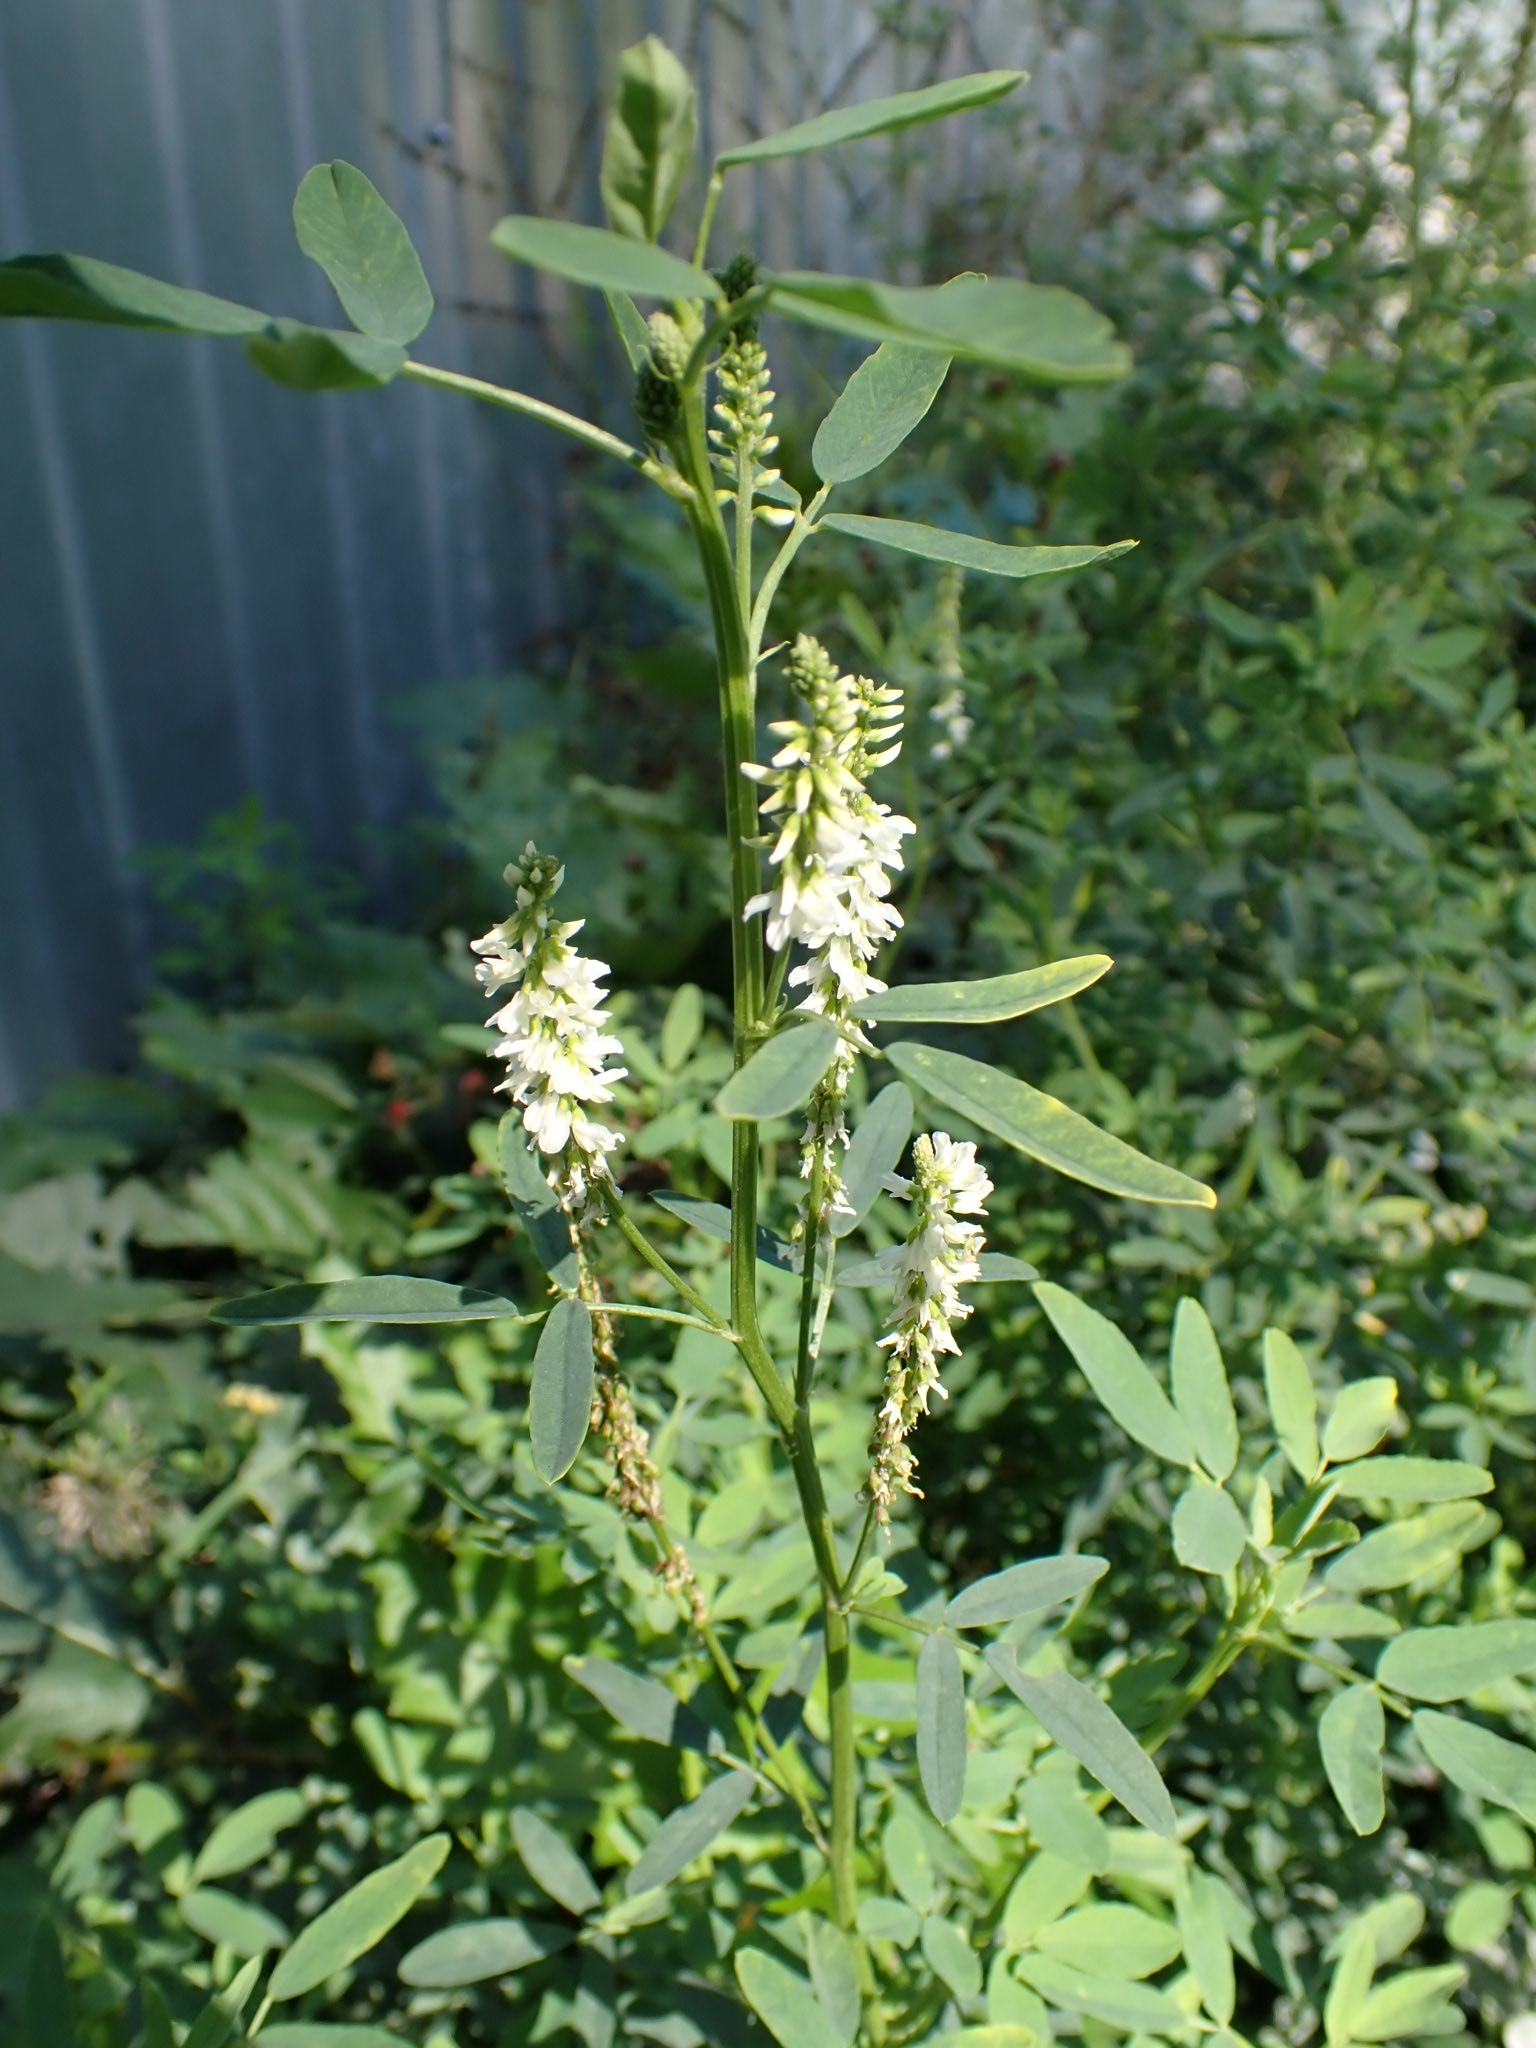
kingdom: Plantae
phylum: Tracheophyta
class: Magnoliopsida
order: Fabales
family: Fabaceae
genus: Melilotus
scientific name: Melilotus albus
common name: White melilot
